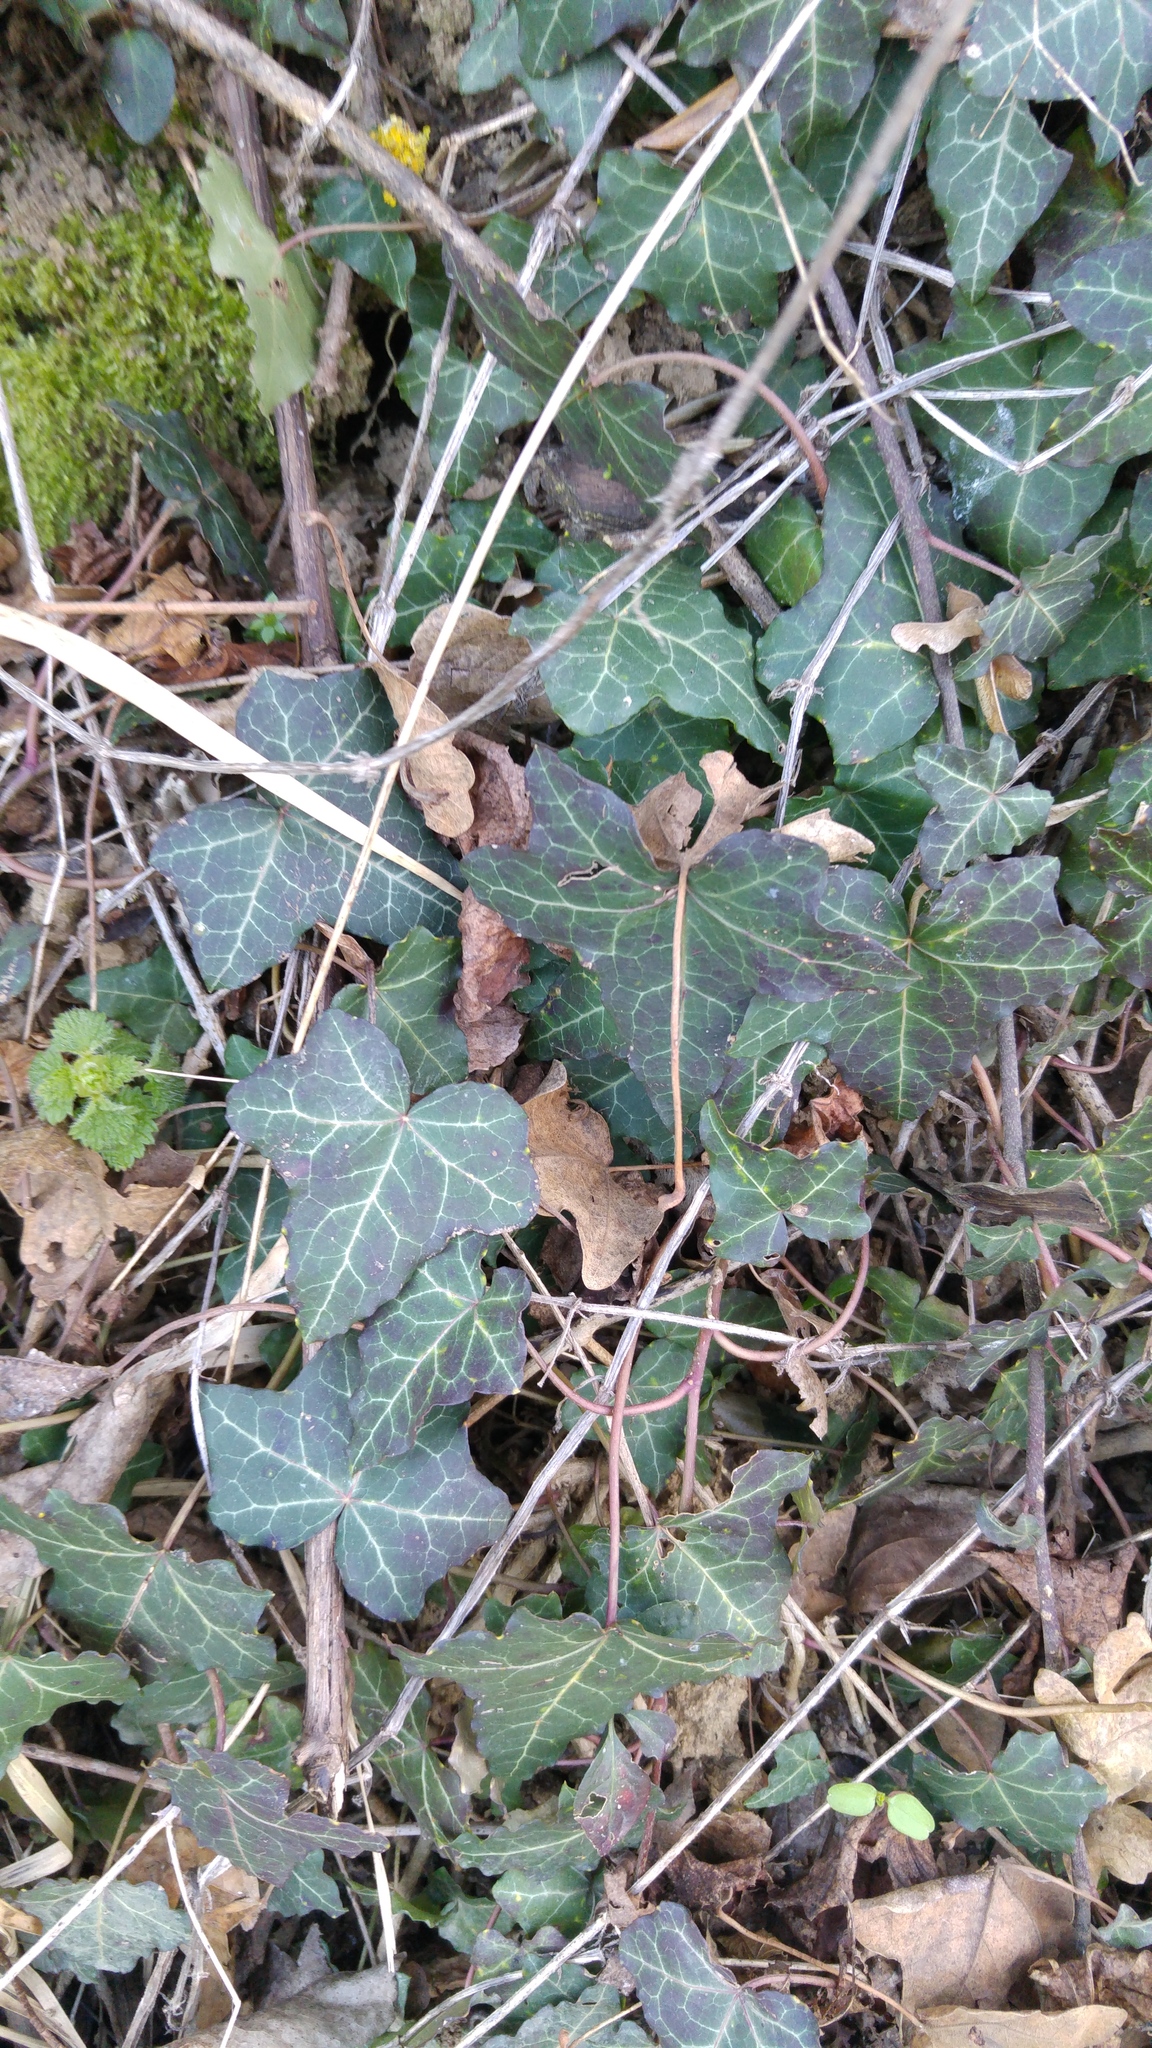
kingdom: Plantae
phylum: Tracheophyta
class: Magnoliopsida
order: Apiales
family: Araliaceae
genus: Hedera
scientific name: Hedera helix
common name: Ivy
